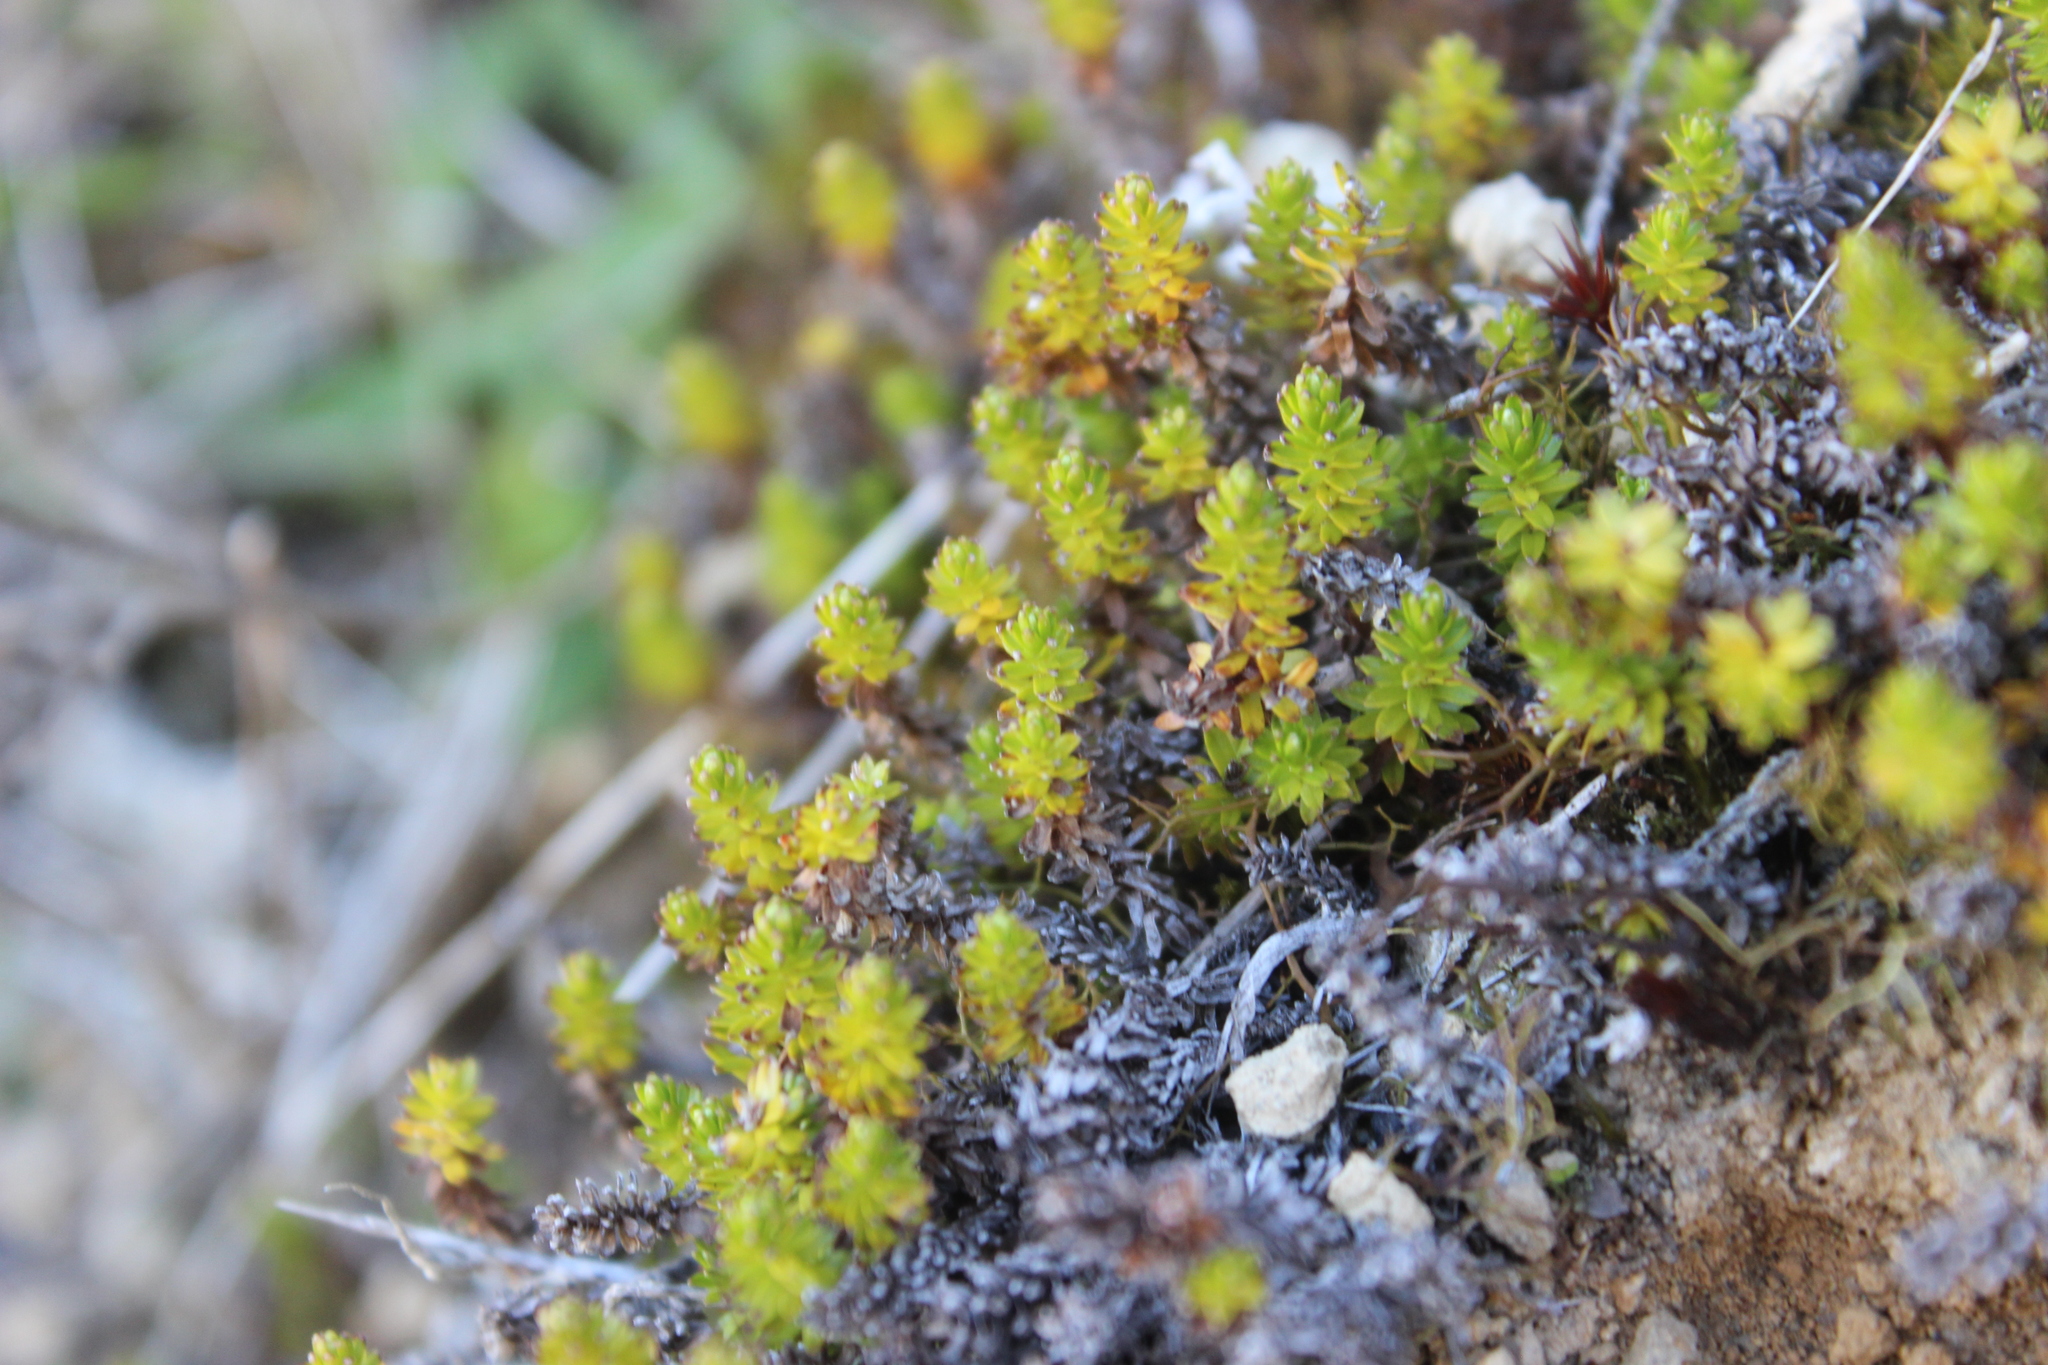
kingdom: Plantae
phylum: Tracheophyta
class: Magnoliopsida
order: Asterales
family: Asteraceae
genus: Raoulia
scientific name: Raoulia glabra
